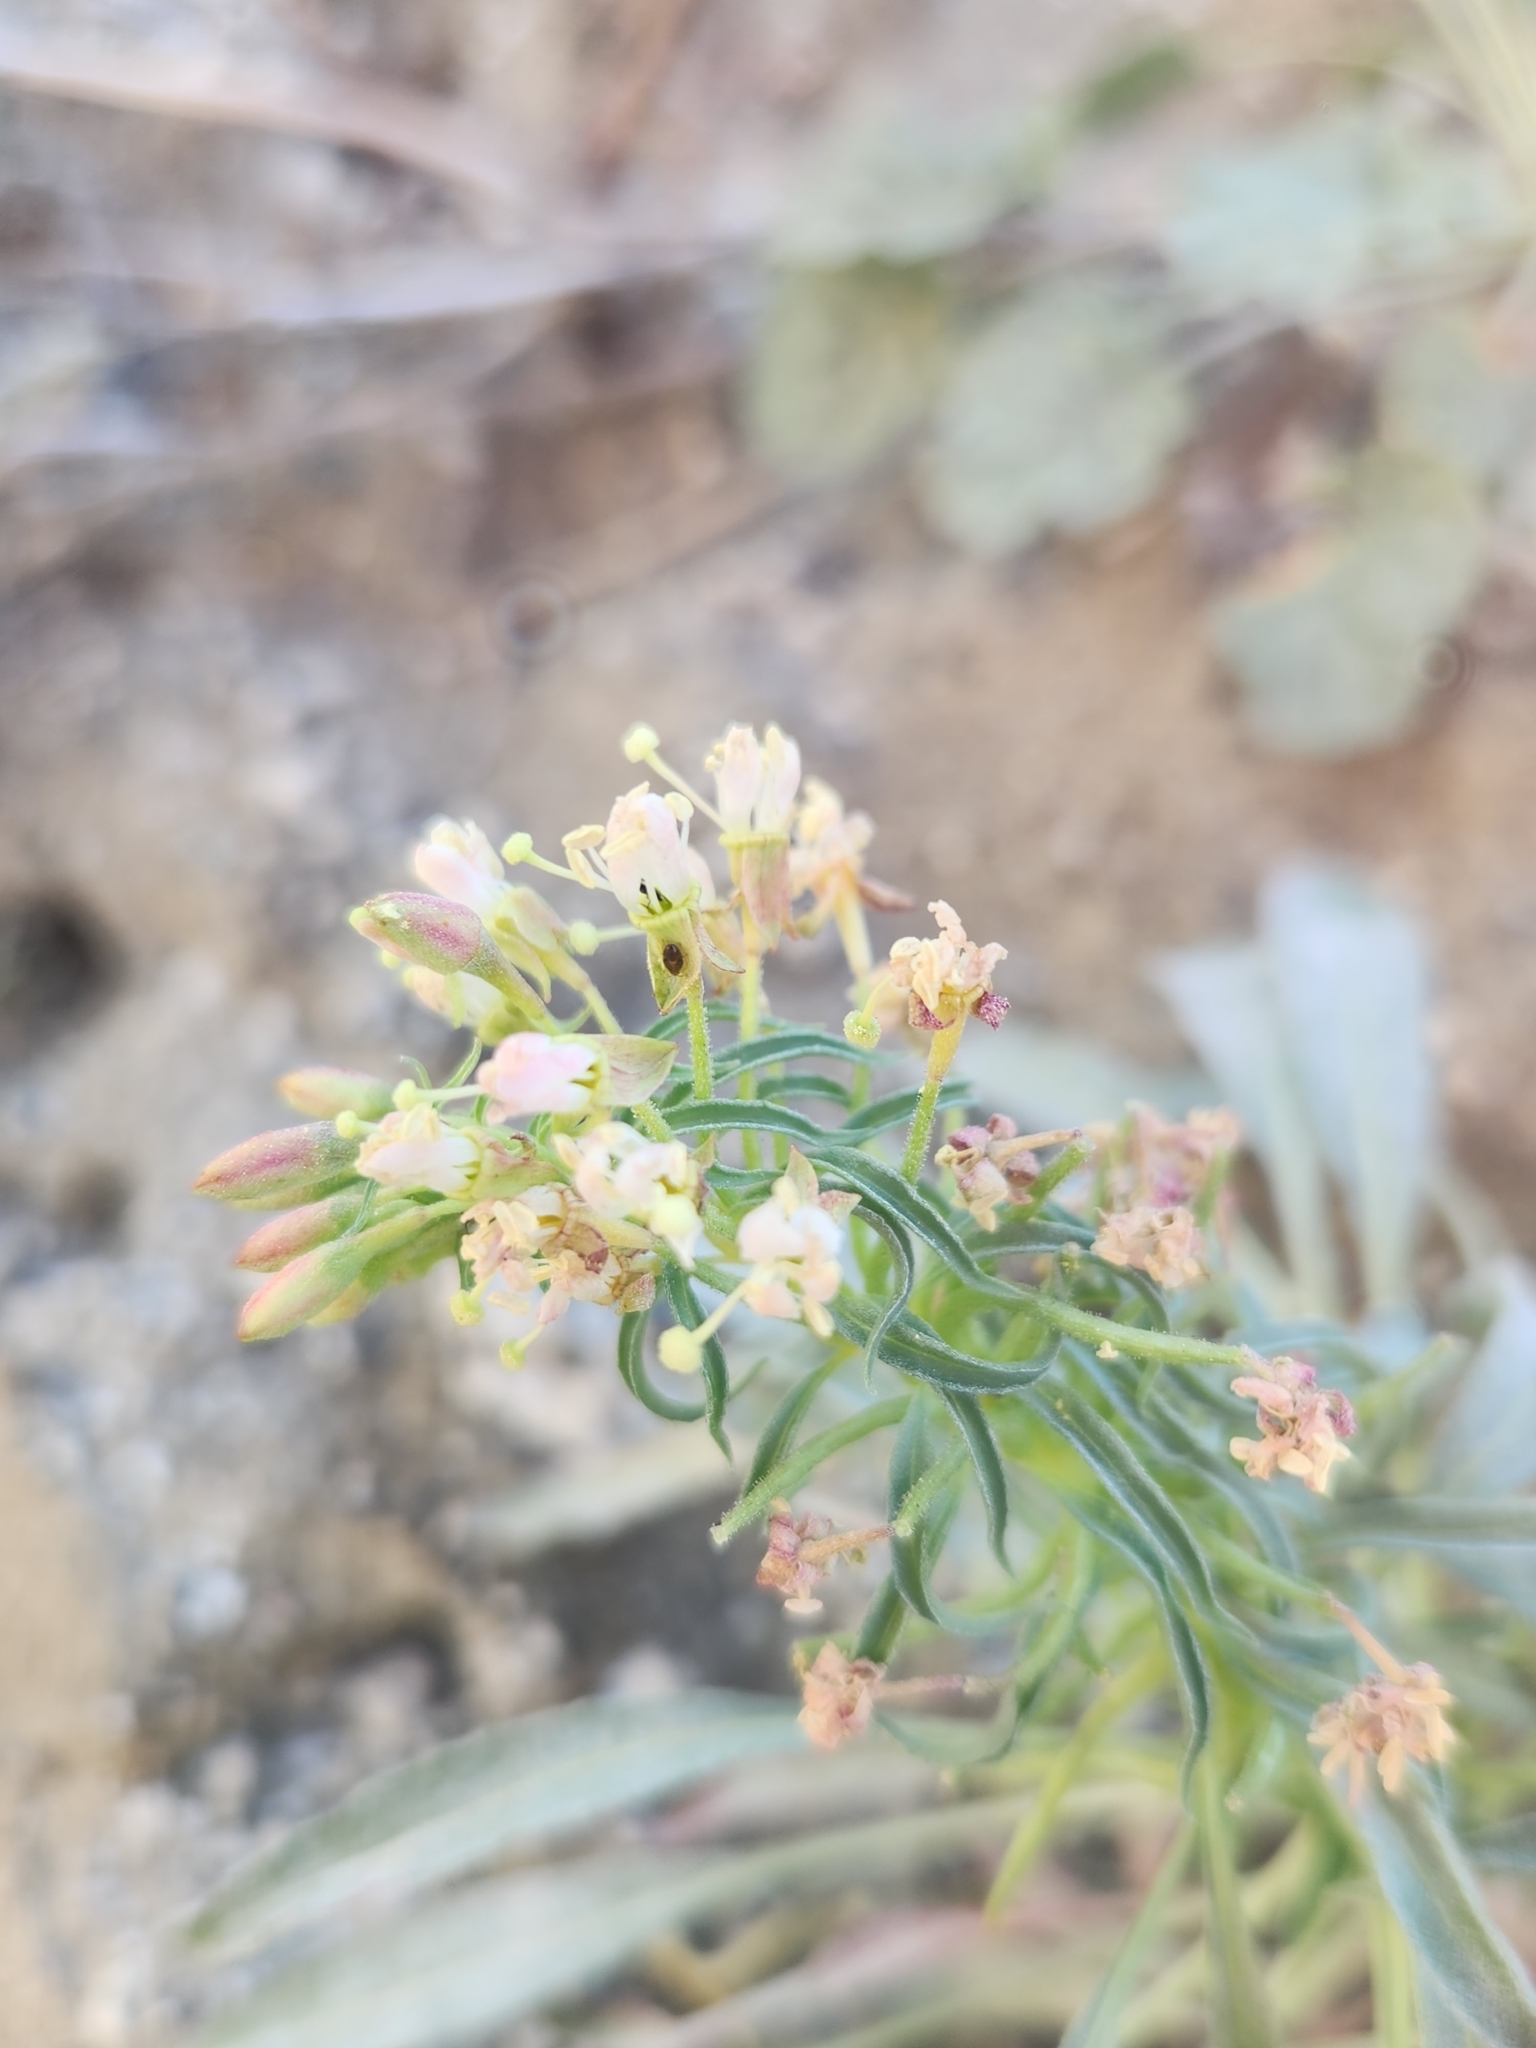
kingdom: Plantae
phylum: Tracheophyta
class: Magnoliopsida
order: Myrtales
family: Onagraceae
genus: Eremothera
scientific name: Eremothera boothii
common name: Booth's evening primrose
